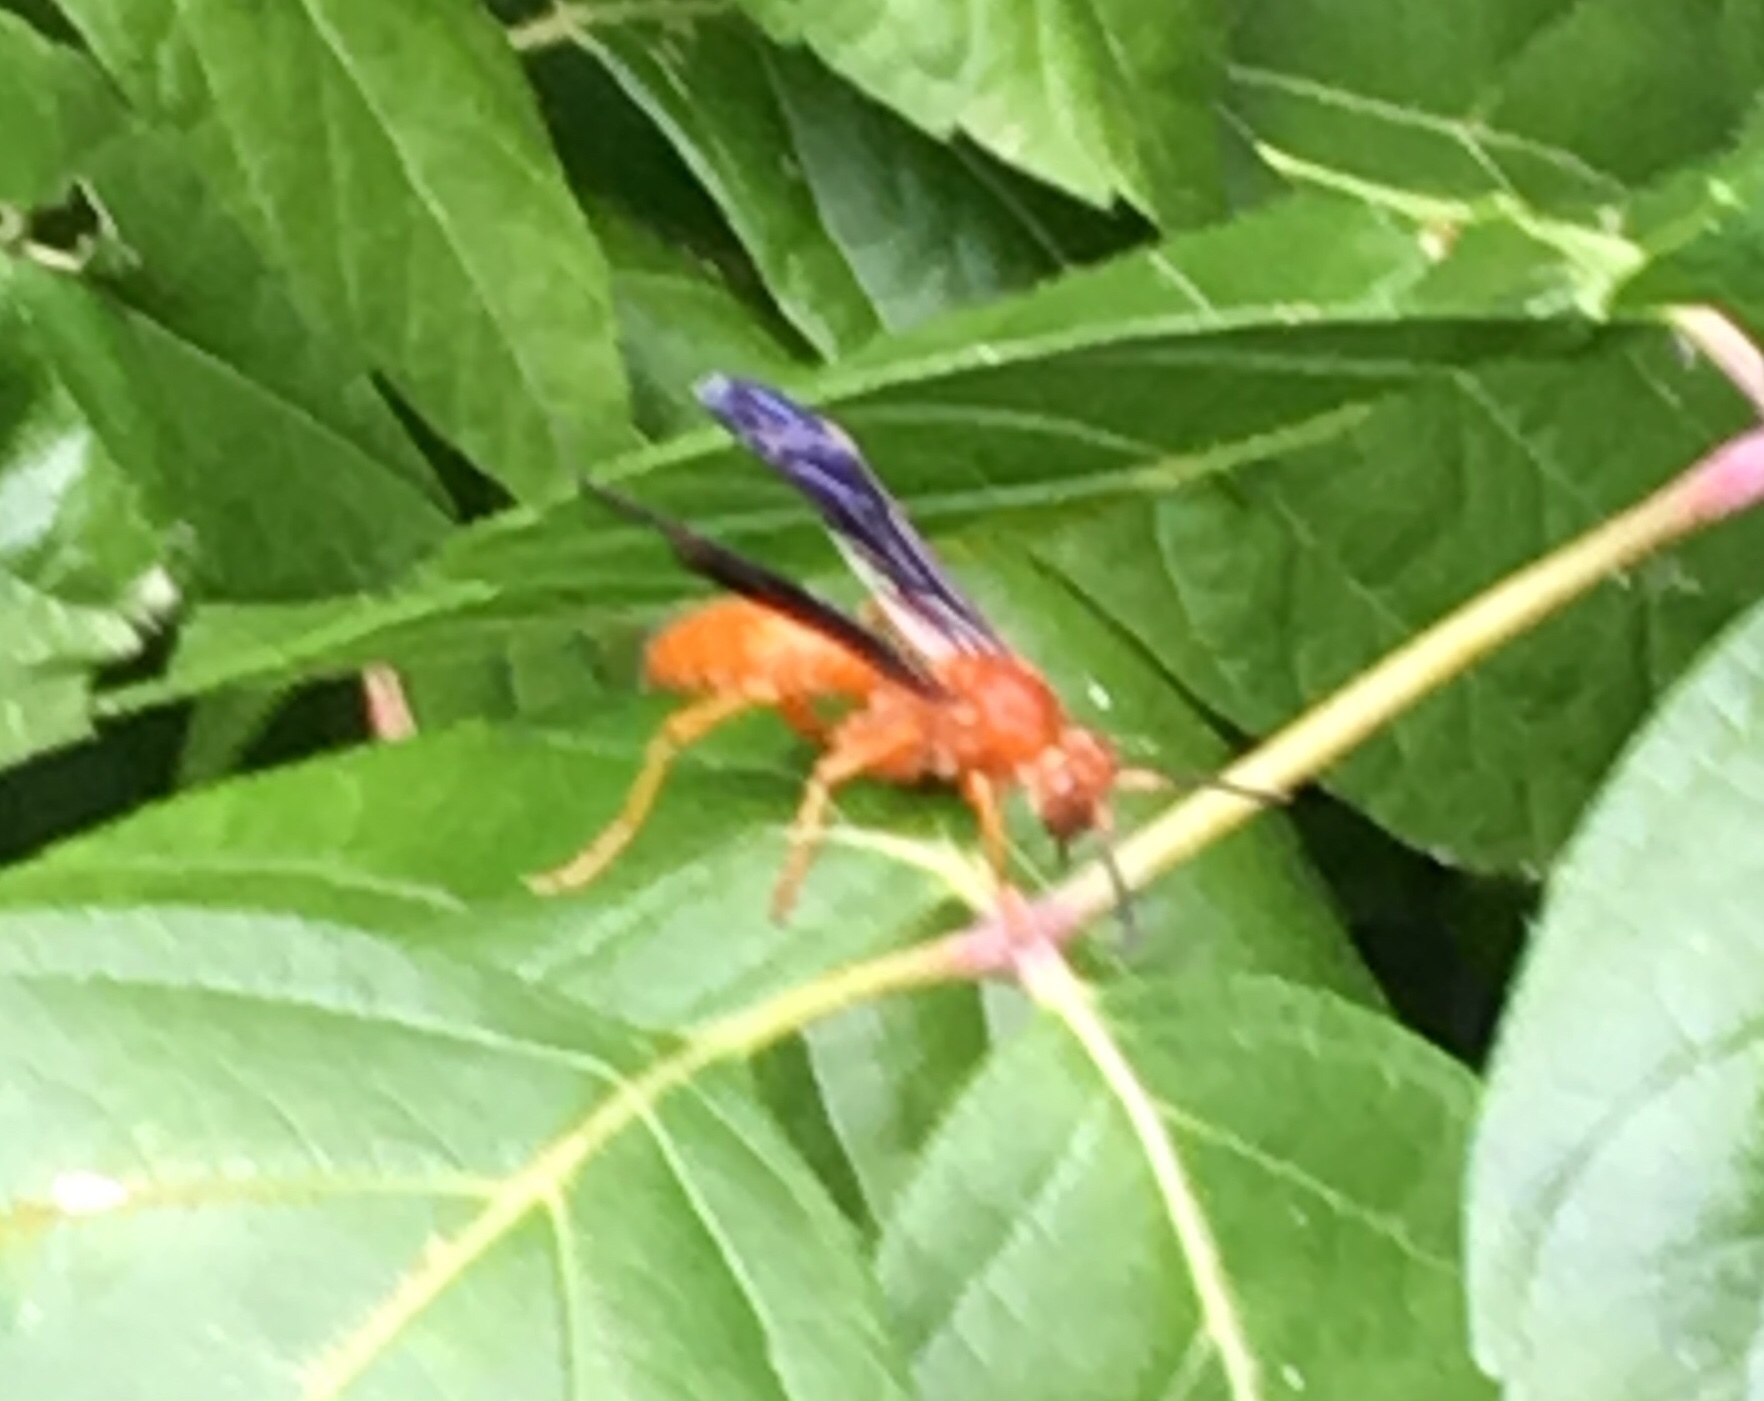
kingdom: Animalia
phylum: Arthropoda
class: Insecta
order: Hymenoptera
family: Eumenidae
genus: Polistes
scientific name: Polistes
